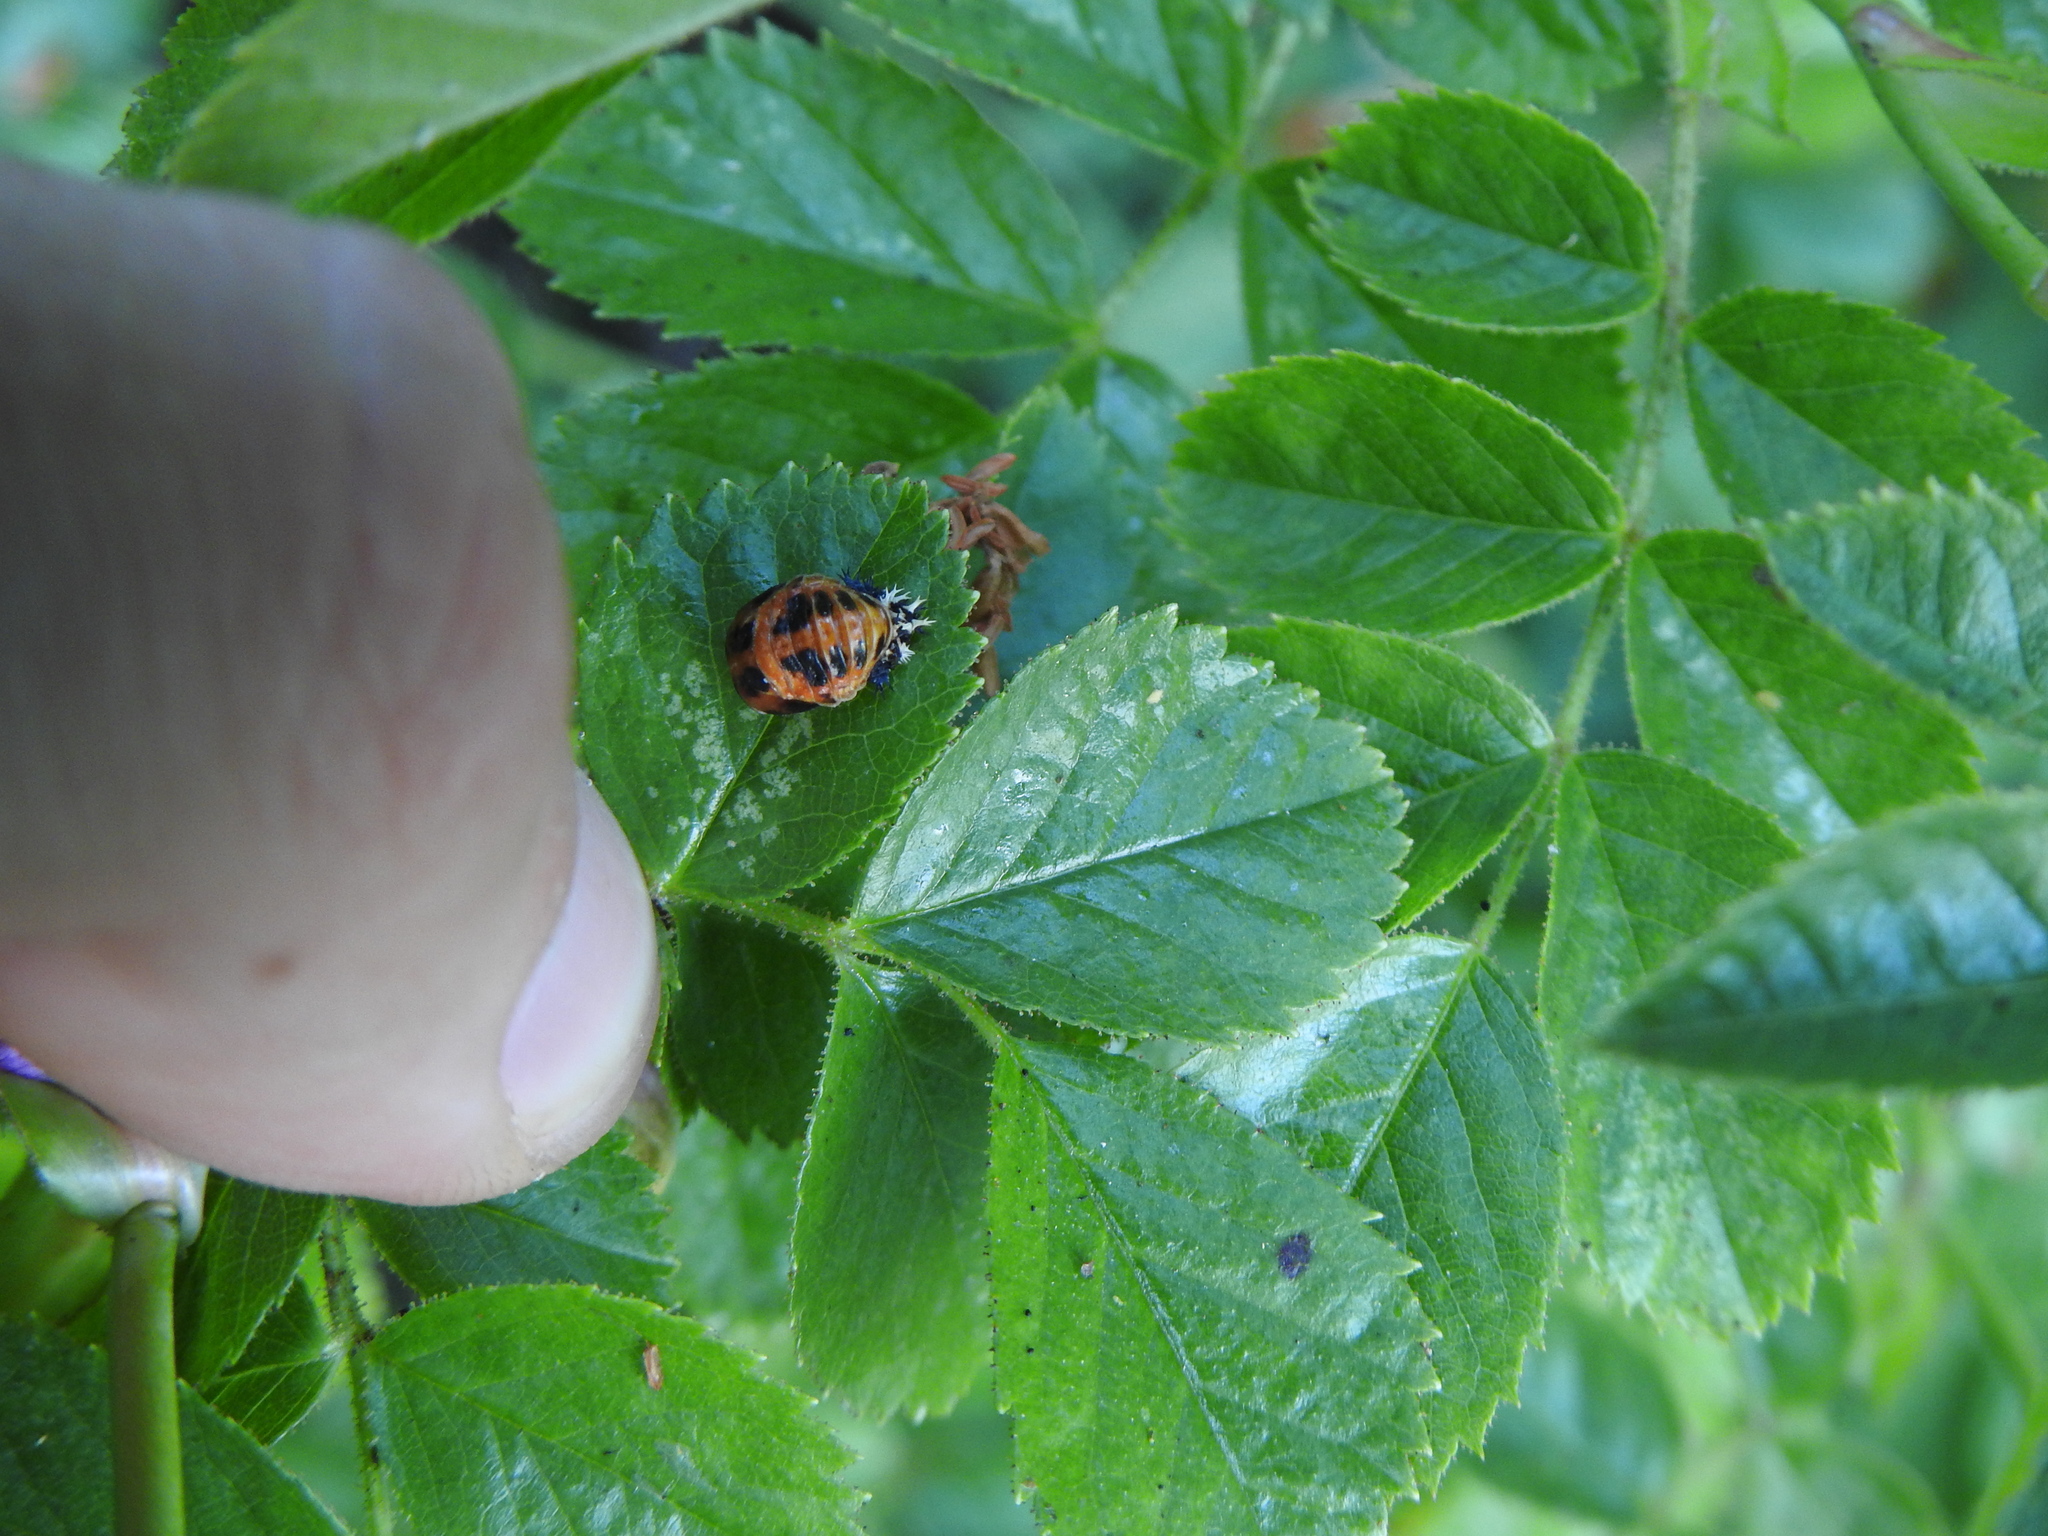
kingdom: Animalia
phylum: Arthropoda
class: Insecta
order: Coleoptera
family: Coccinellidae
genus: Harmonia
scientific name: Harmonia axyridis
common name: Harlequin ladybird
